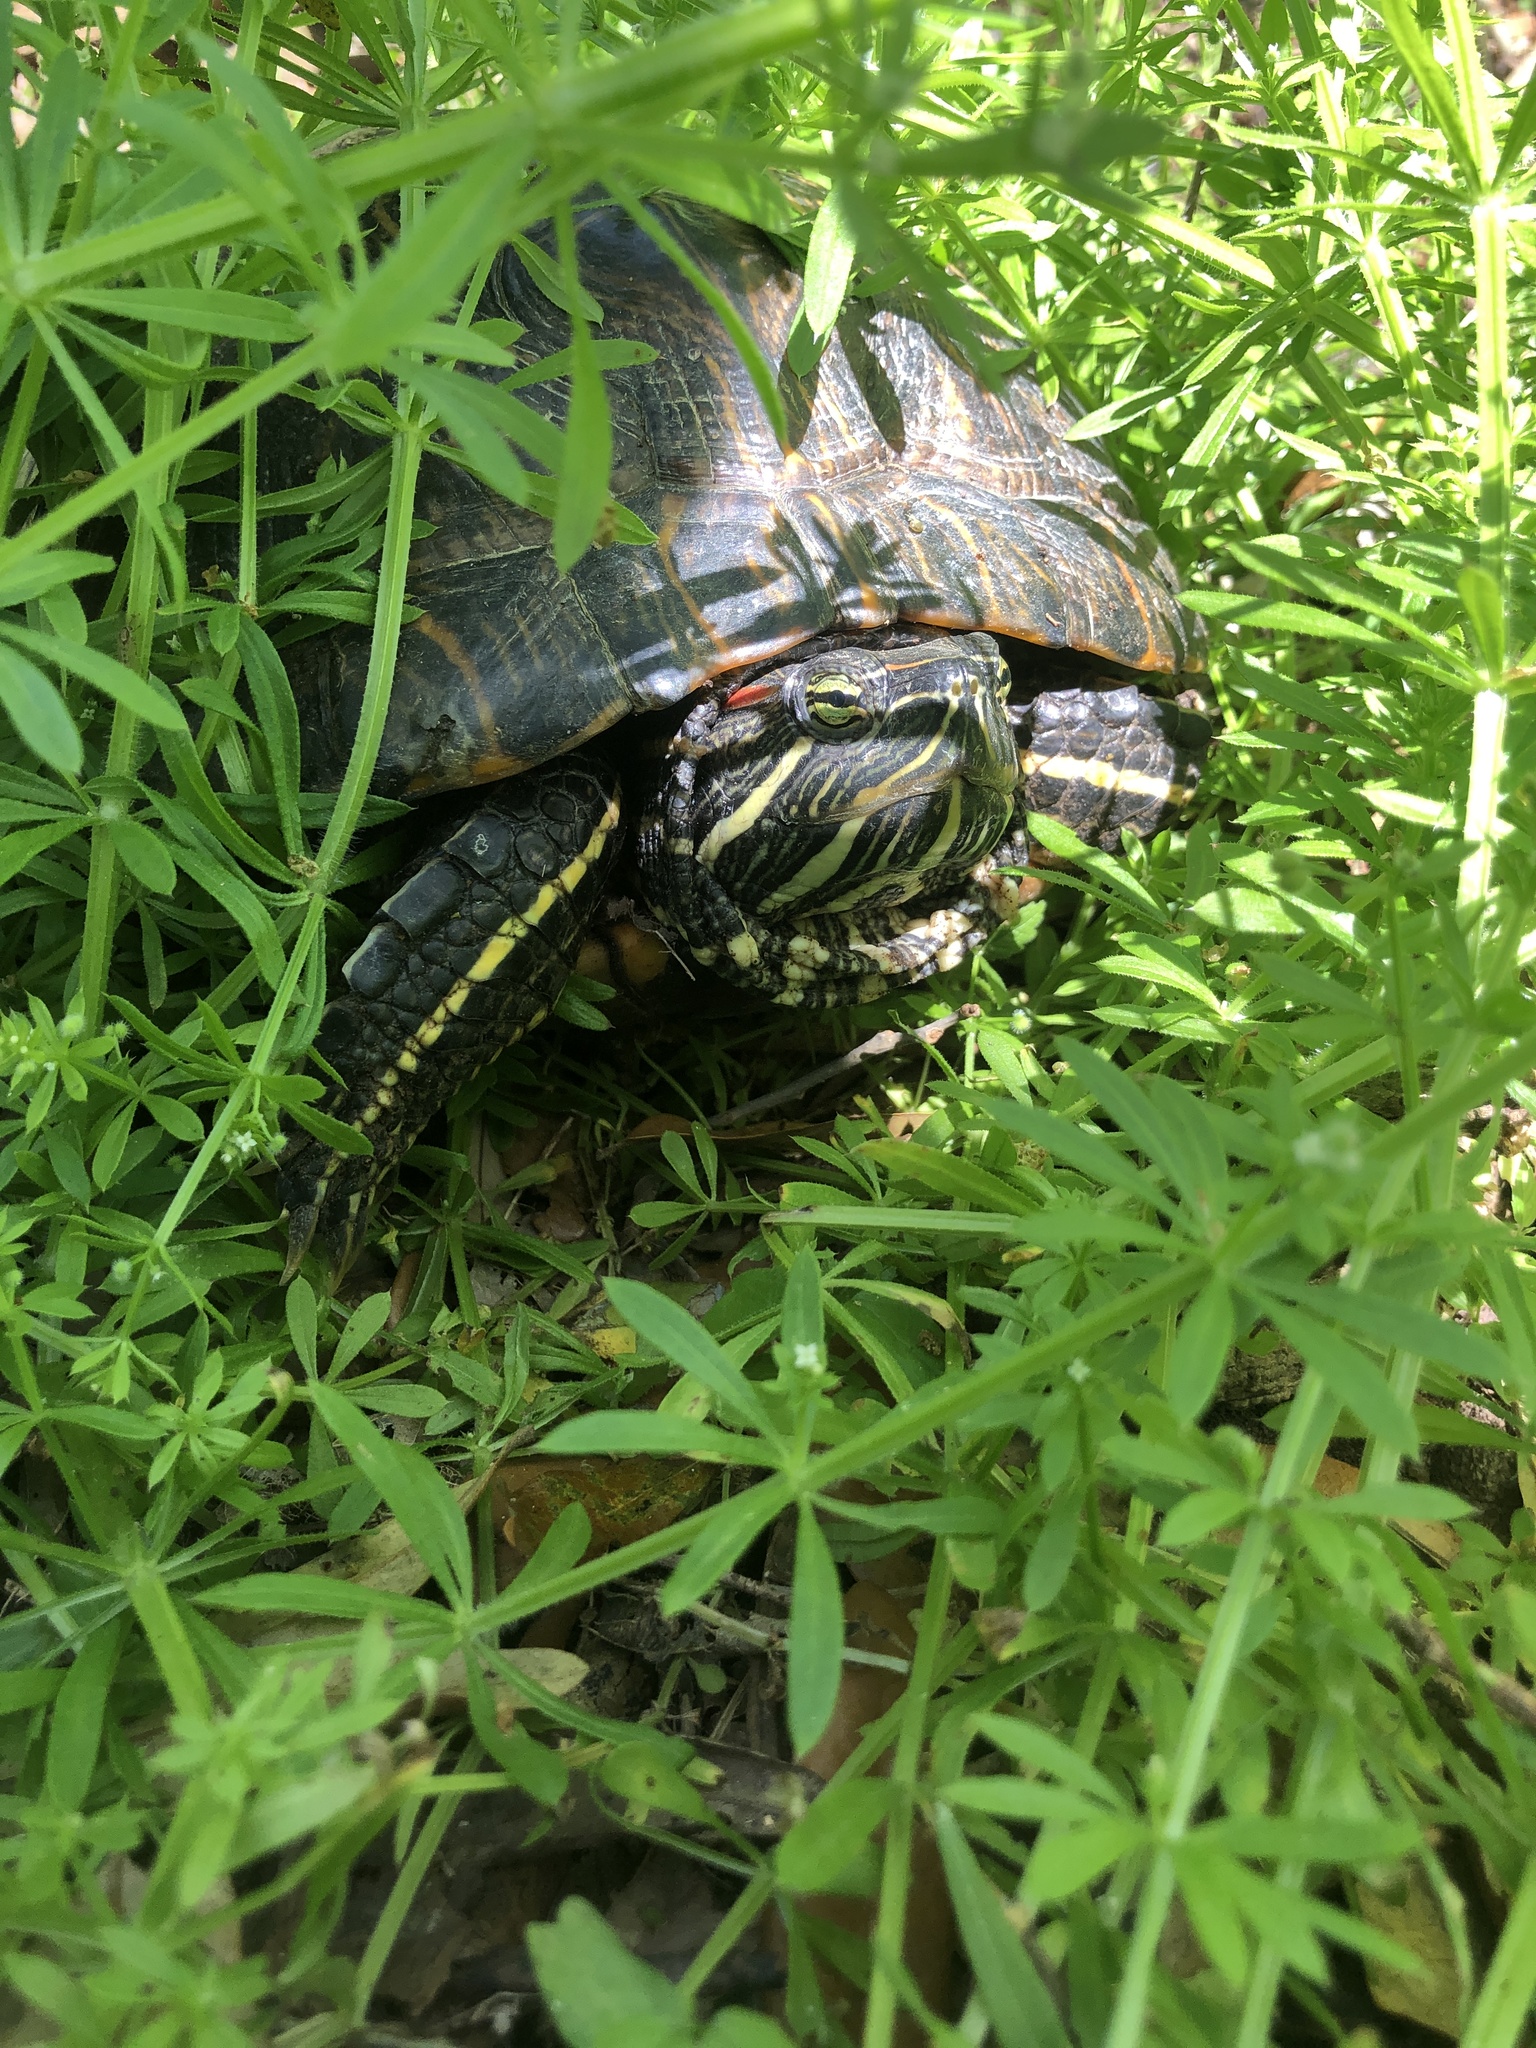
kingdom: Animalia
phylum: Chordata
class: Testudines
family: Emydidae
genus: Trachemys
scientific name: Trachemys scripta
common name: Slider
